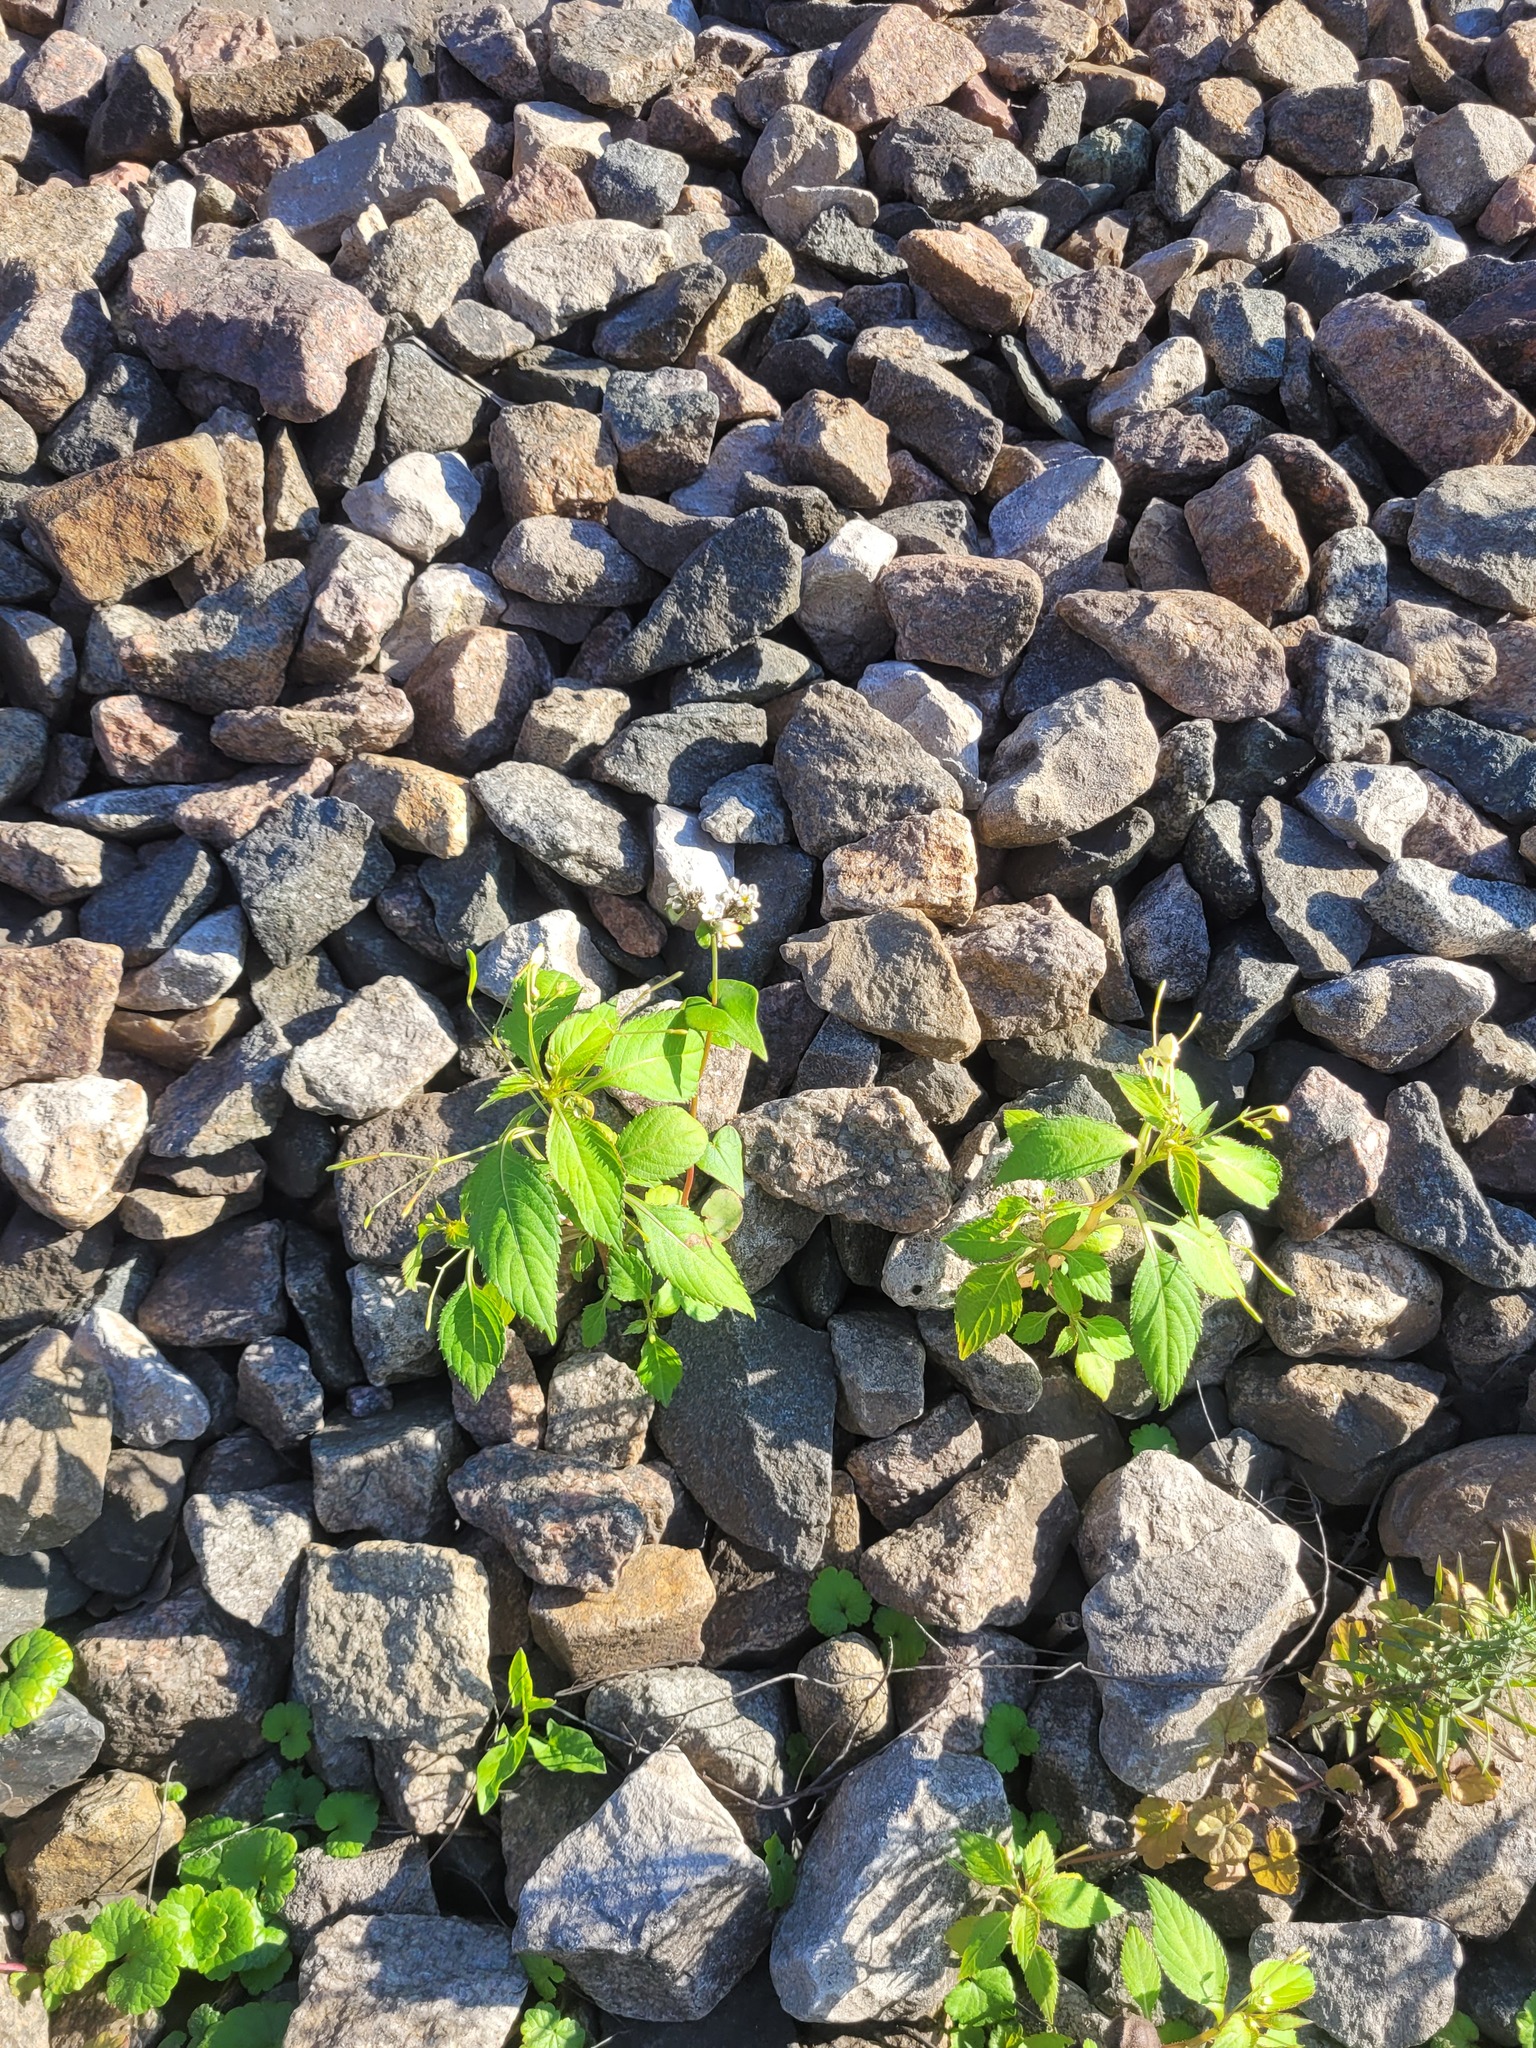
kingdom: Plantae
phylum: Tracheophyta
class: Magnoliopsida
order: Ericales
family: Balsaminaceae
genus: Impatiens
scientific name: Impatiens parviflora
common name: Small balsam
